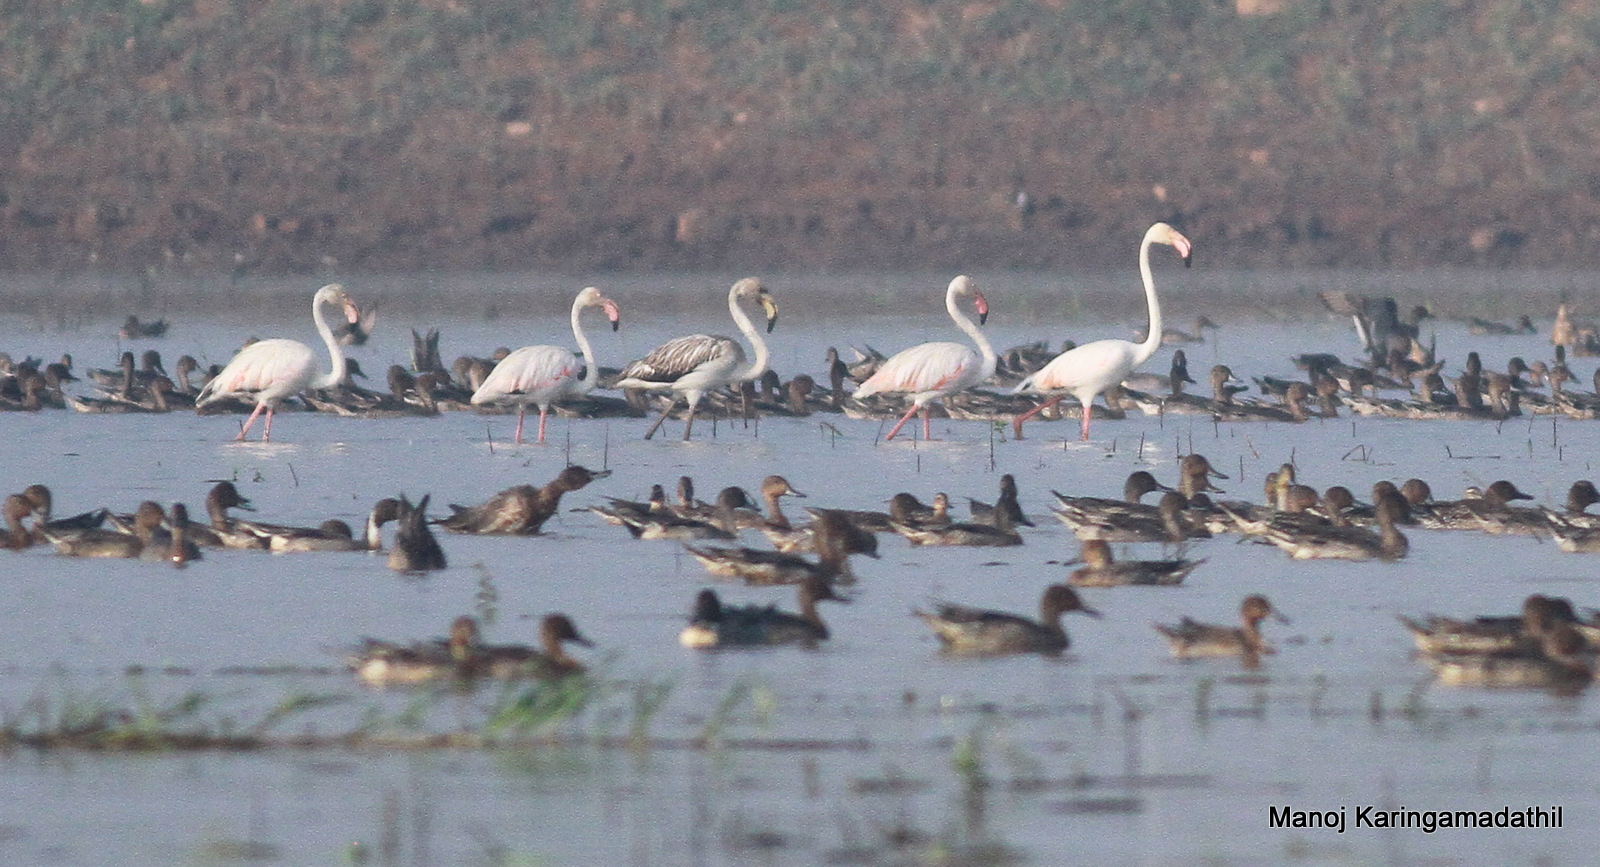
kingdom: Animalia
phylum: Chordata
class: Aves
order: Phoenicopteriformes
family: Phoenicopteridae
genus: Phoenicopterus
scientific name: Phoenicopterus roseus
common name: Greater flamingo
